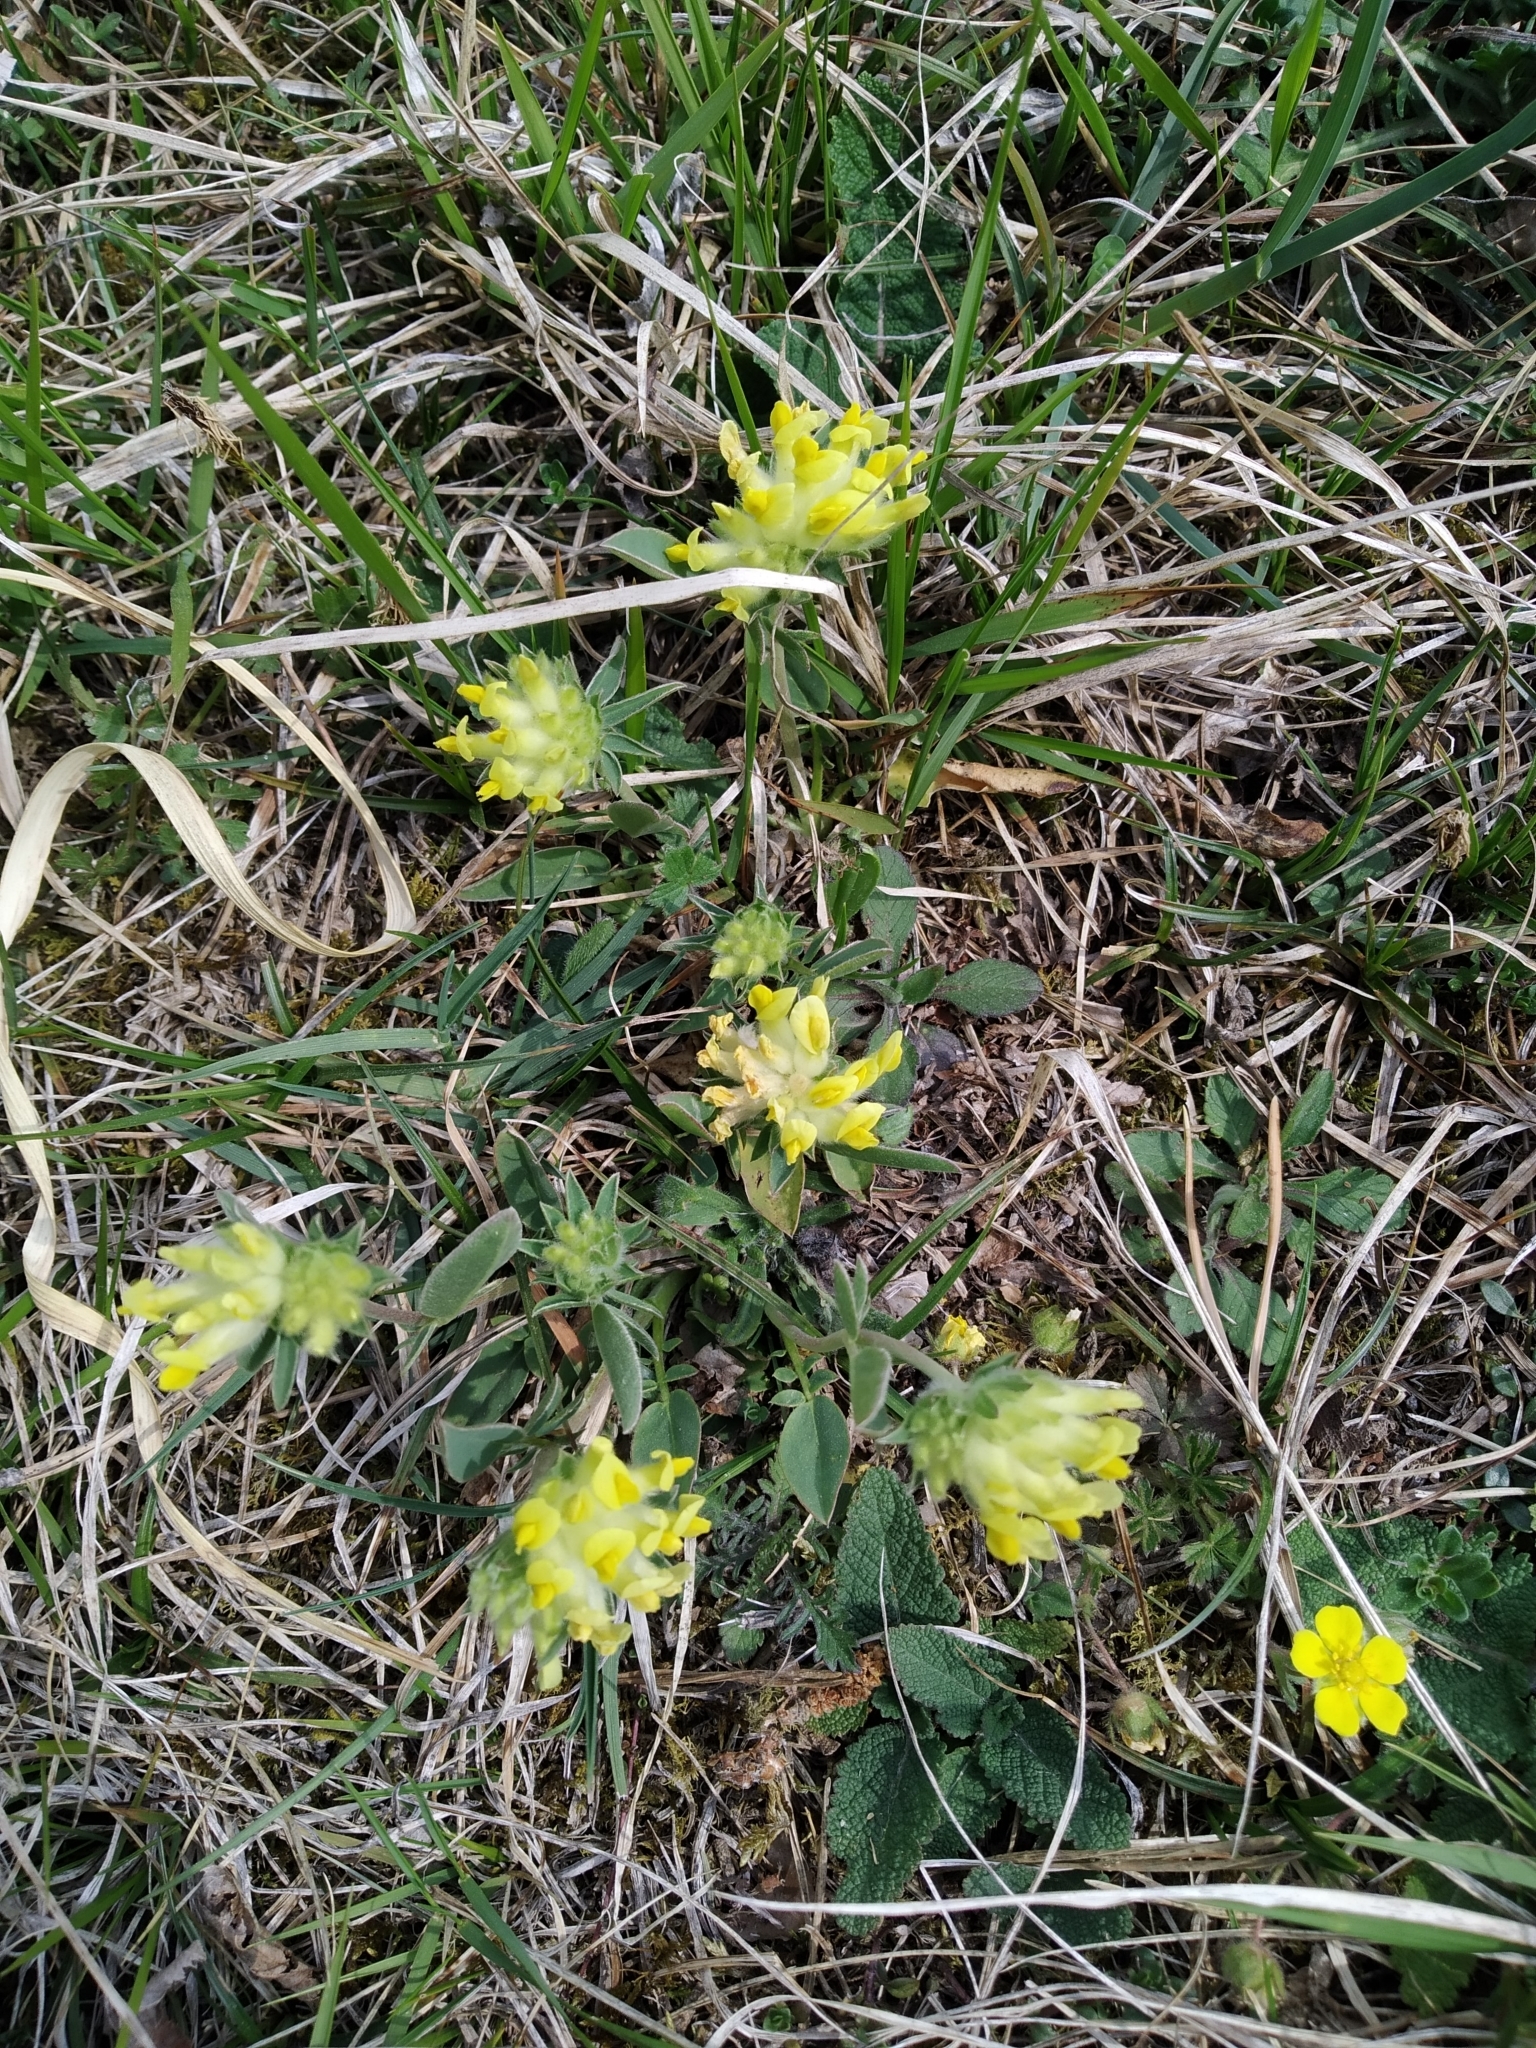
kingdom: Plantae
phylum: Tracheophyta
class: Magnoliopsida
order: Fabales
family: Fabaceae
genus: Anthyllis
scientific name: Anthyllis vulneraria
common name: Kidney vetch
